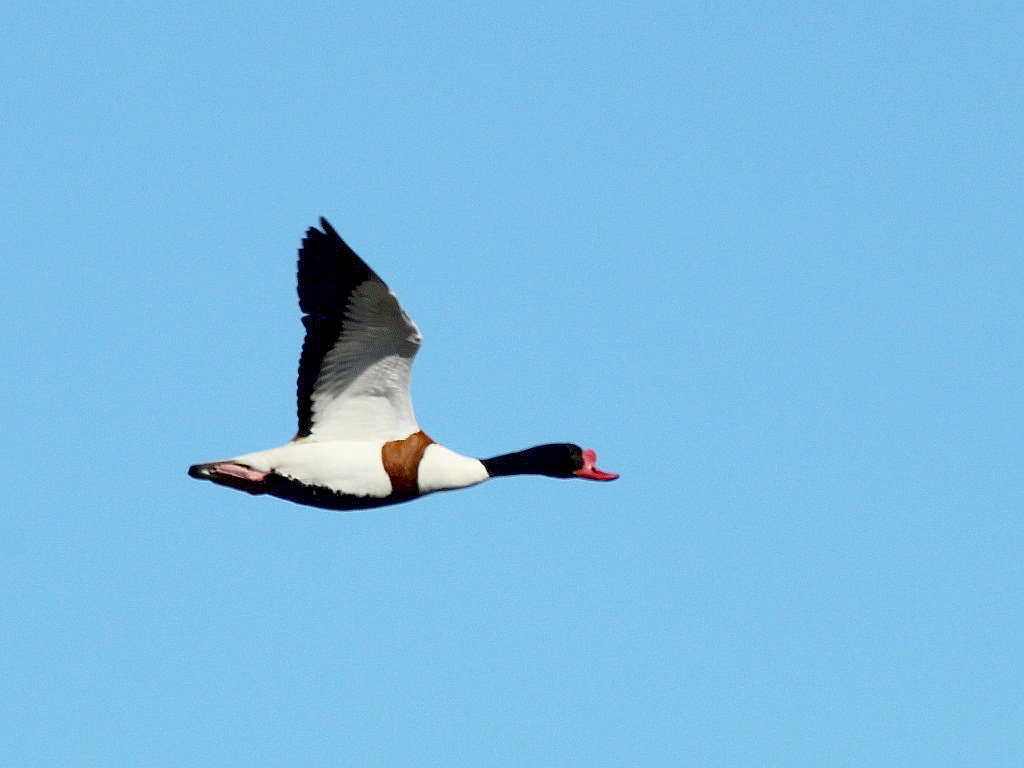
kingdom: Animalia
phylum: Chordata
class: Aves
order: Anseriformes
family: Anatidae
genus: Tadorna
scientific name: Tadorna tadorna
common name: Common shelduck
